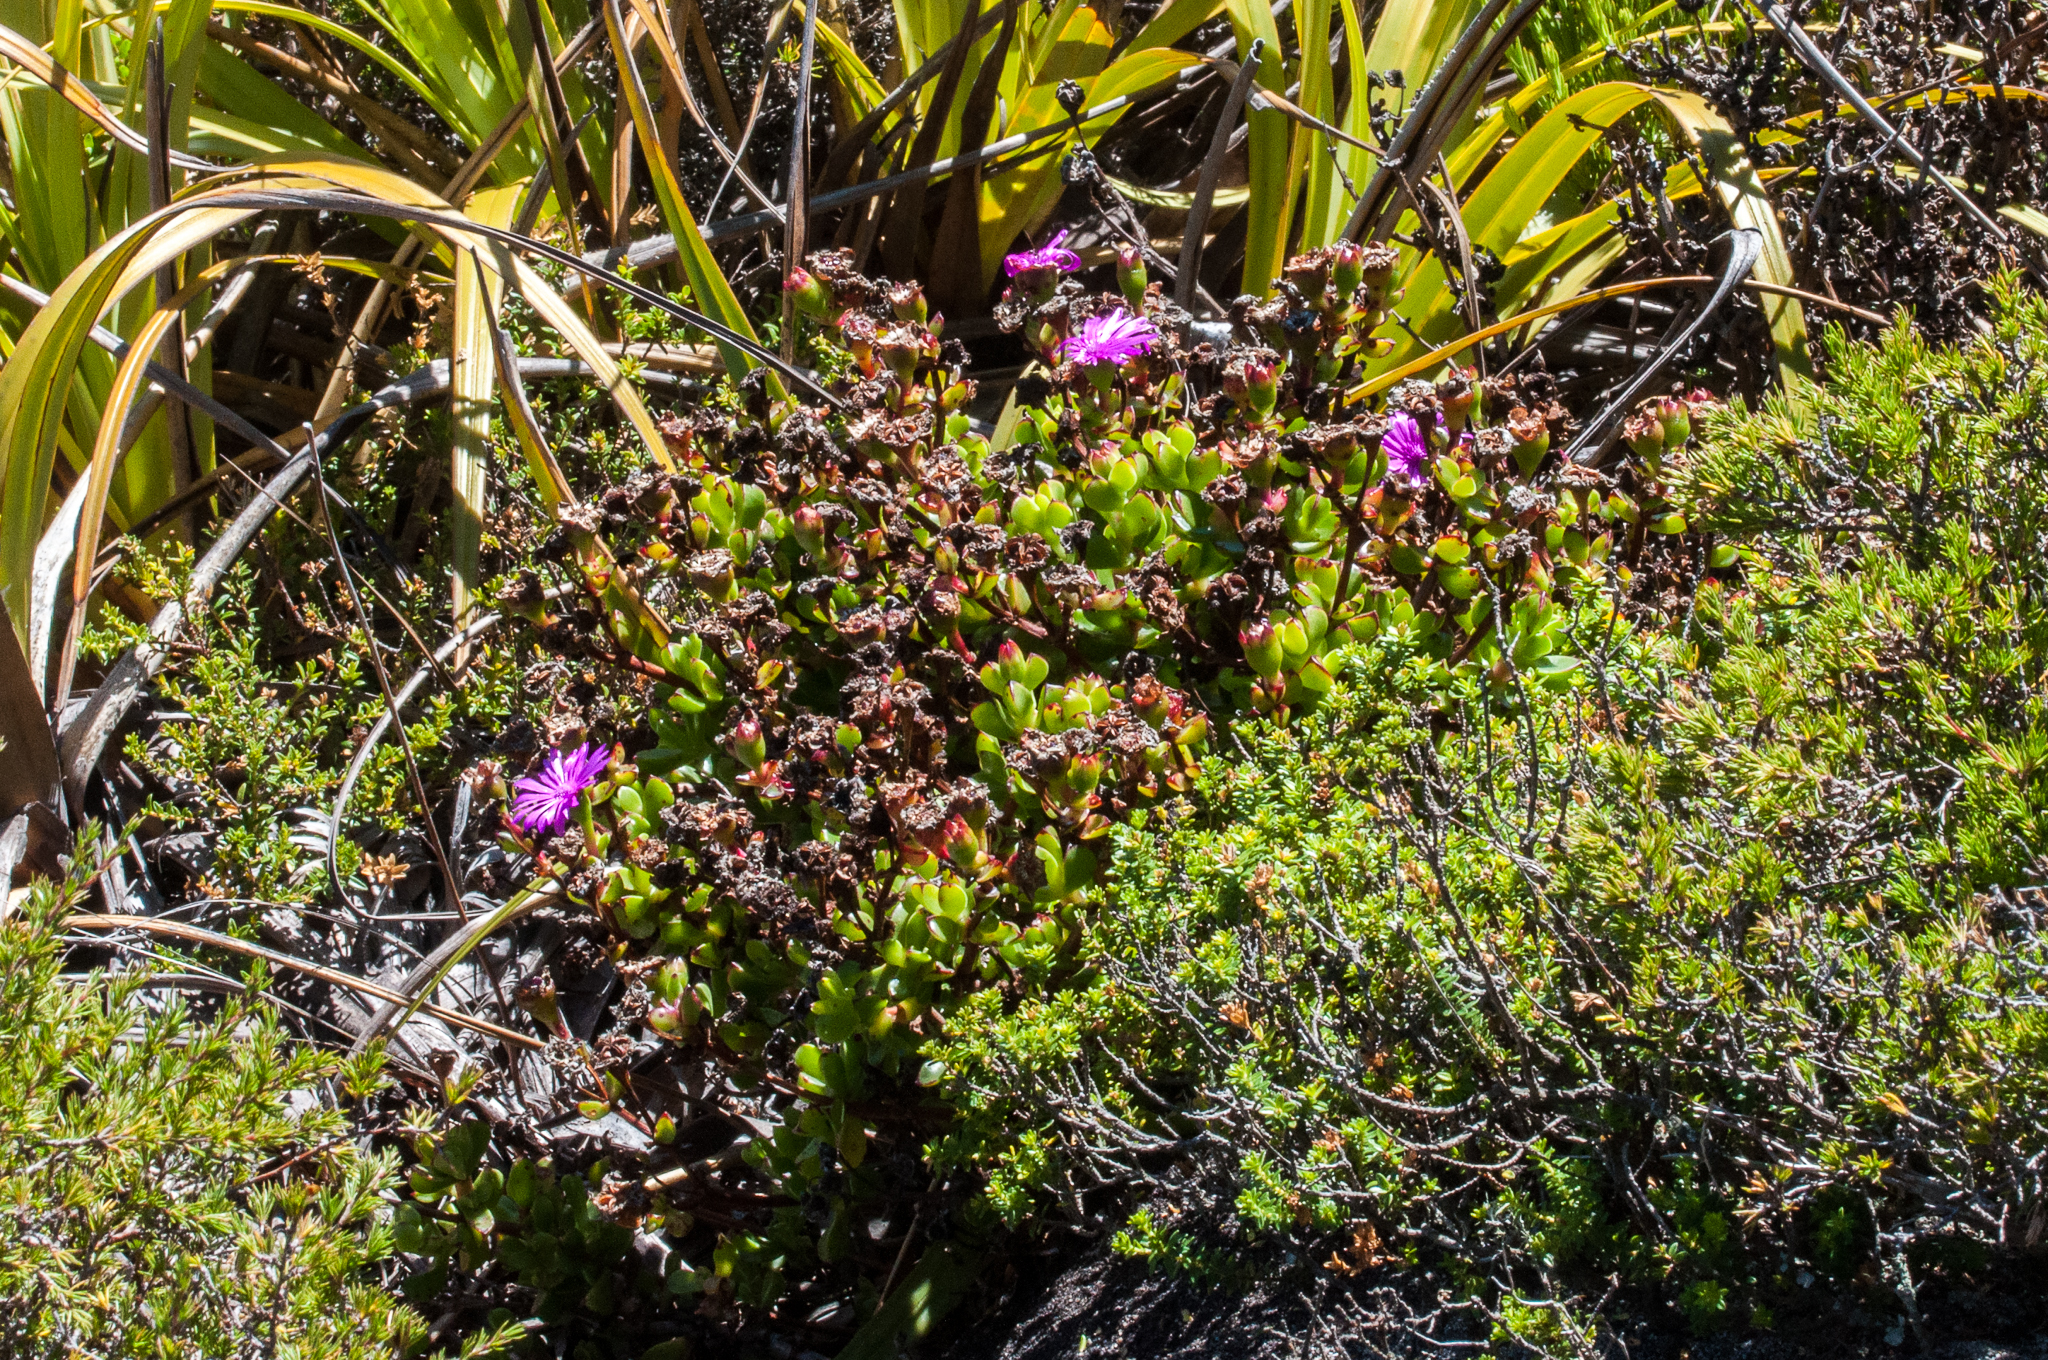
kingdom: Plantae
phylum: Tracheophyta
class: Magnoliopsida
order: Caryophyllales
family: Aizoaceae
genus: Erepsia
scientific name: Erepsia inclaudens
